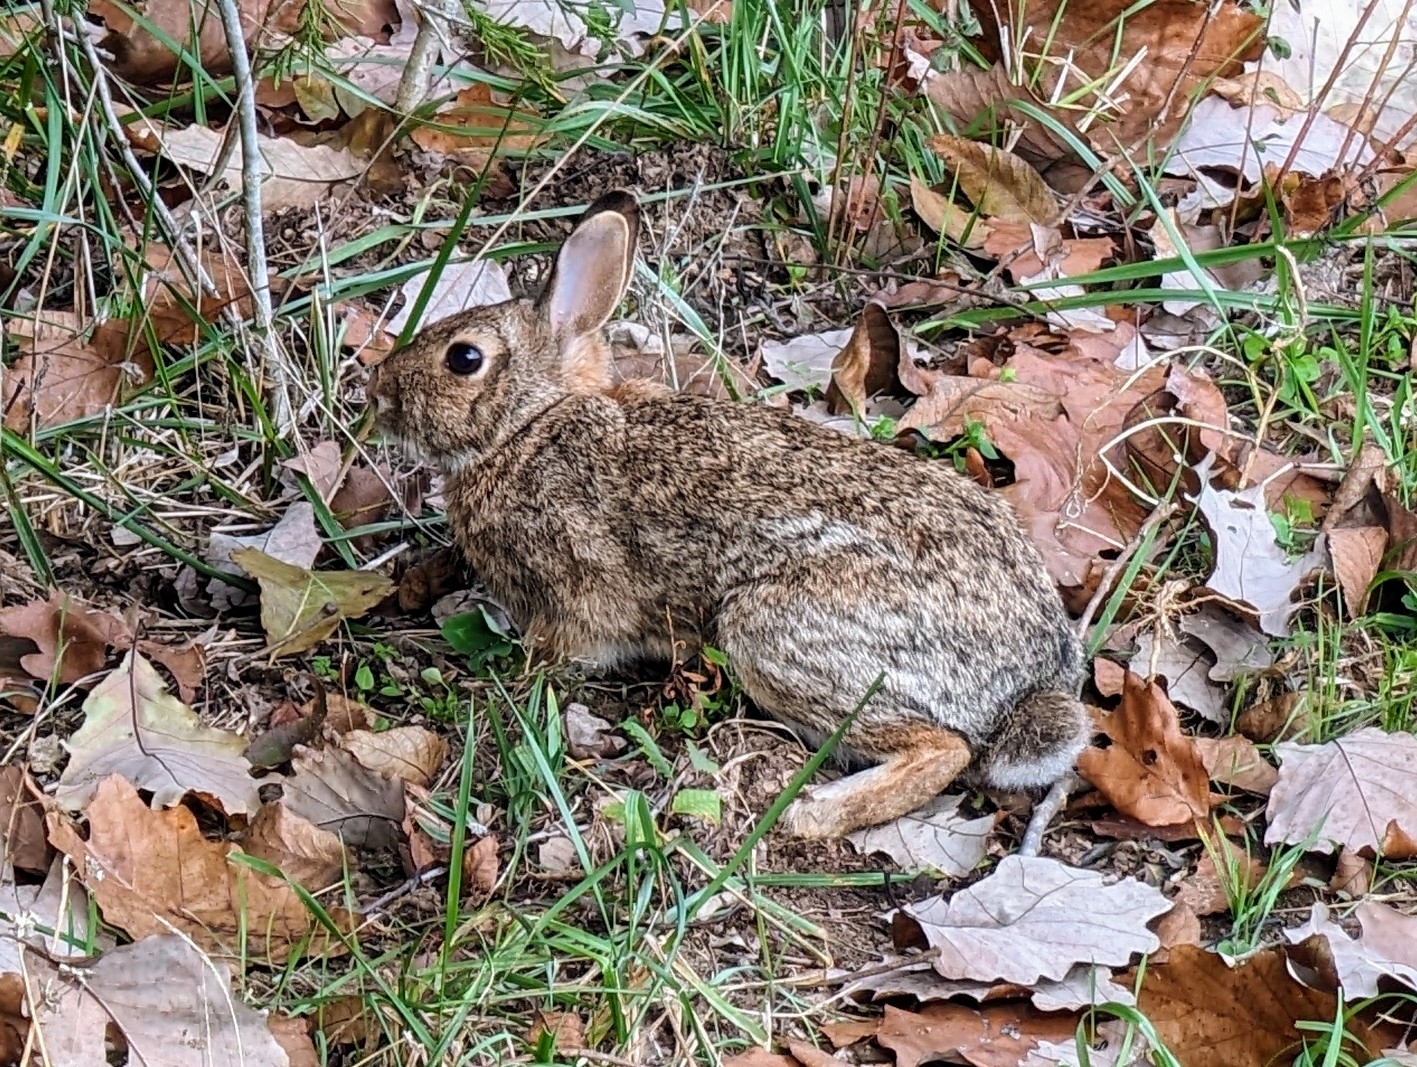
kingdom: Animalia
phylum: Chordata
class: Mammalia
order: Lagomorpha
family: Leporidae
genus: Sylvilagus
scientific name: Sylvilagus floridanus
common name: Eastern cottontail
